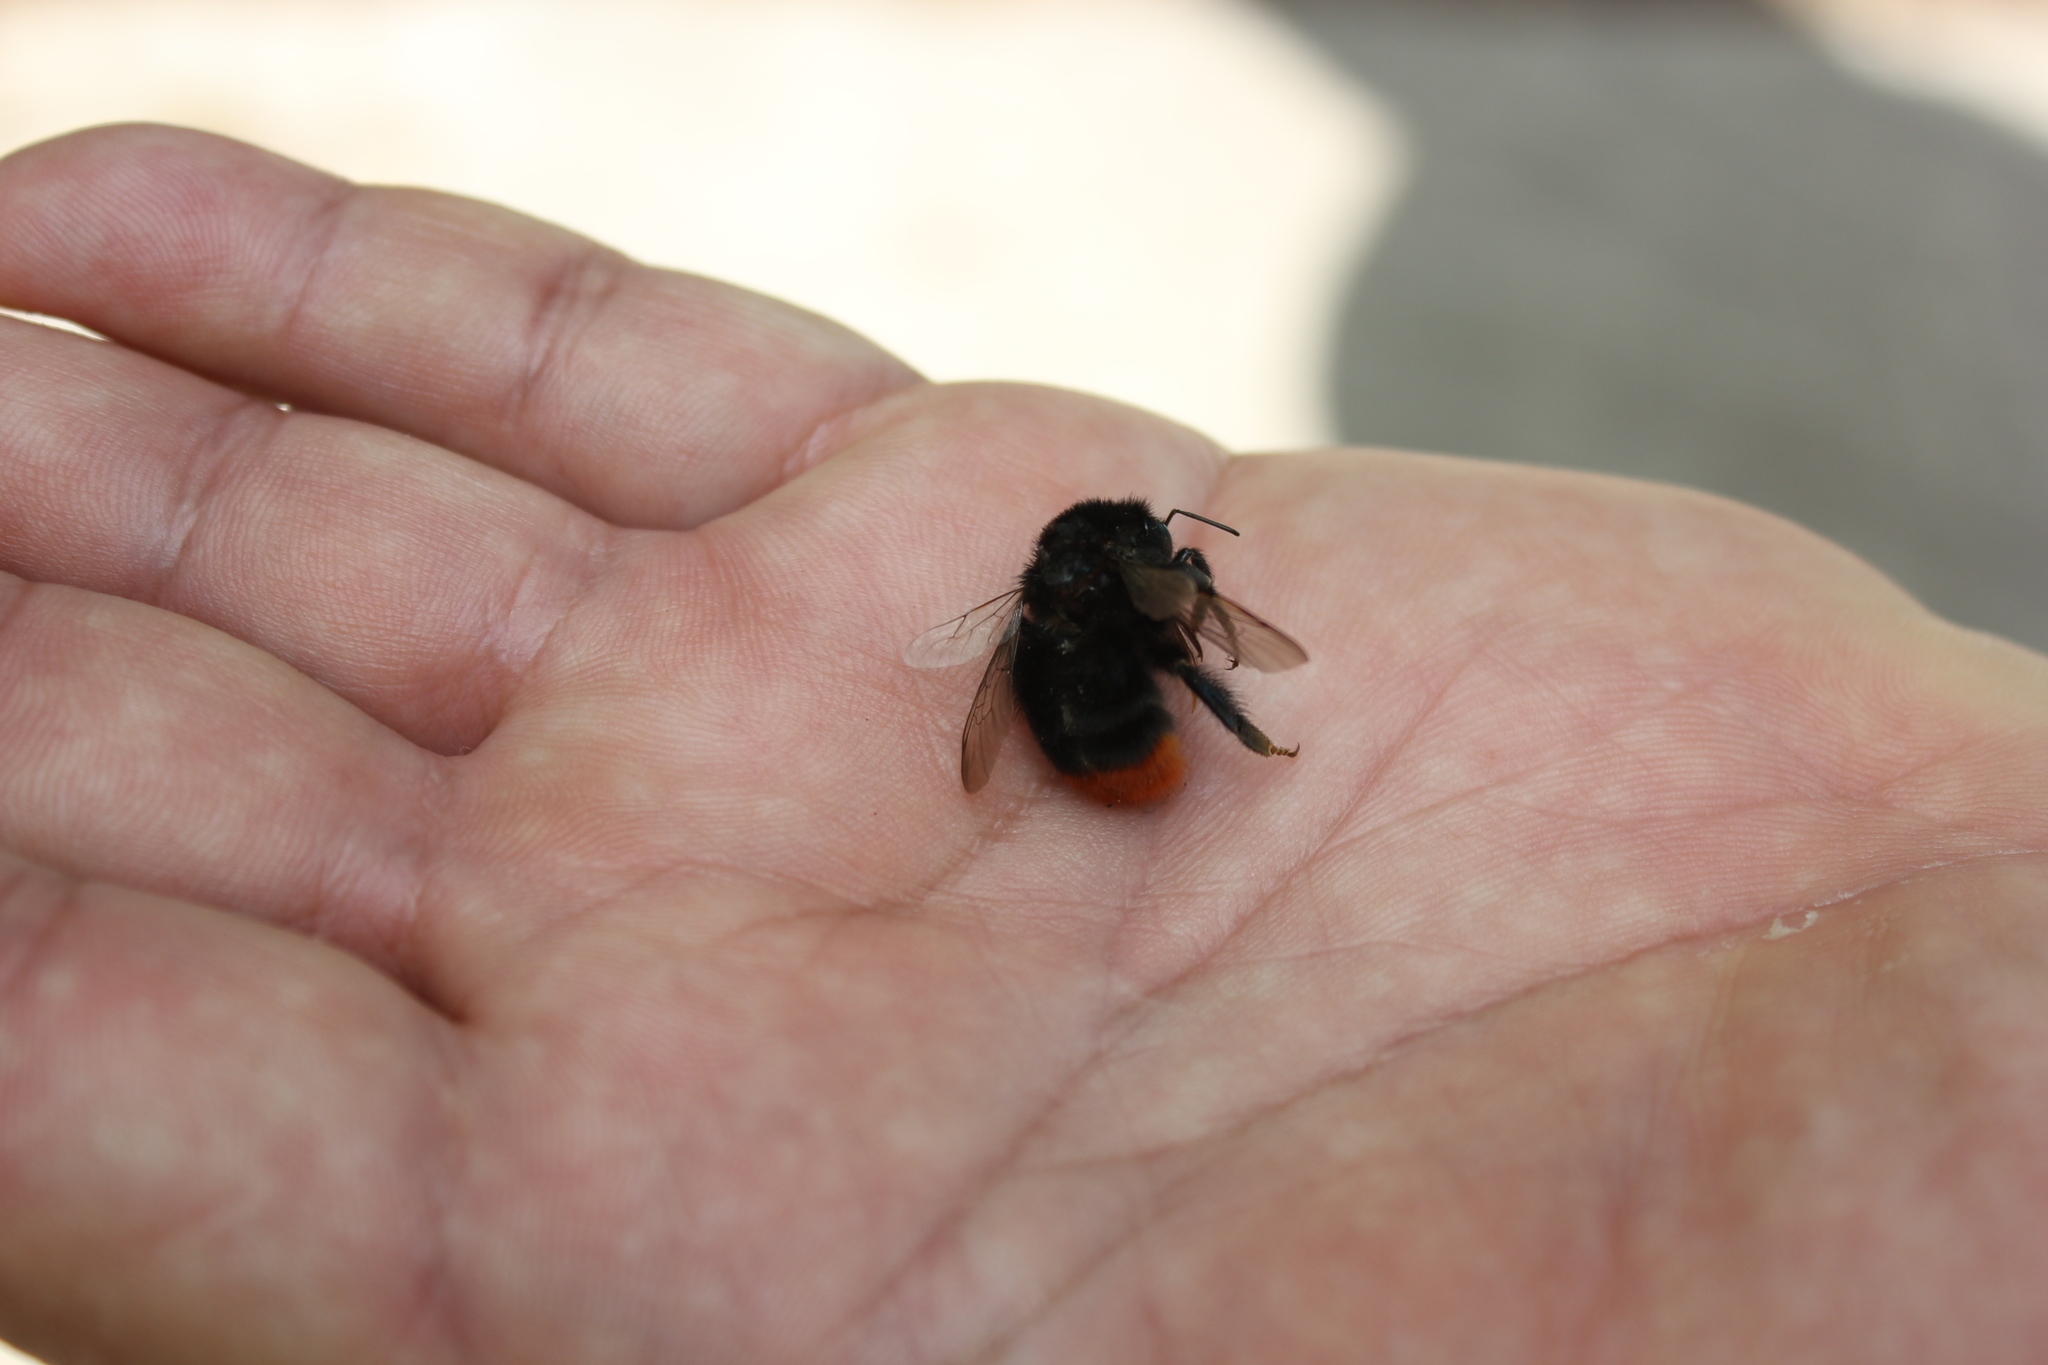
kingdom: Animalia
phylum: Arthropoda
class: Insecta
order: Hymenoptera
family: Apidae
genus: Bombus
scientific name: Bombus lapidarius
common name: Large red-tailed humble-bee
